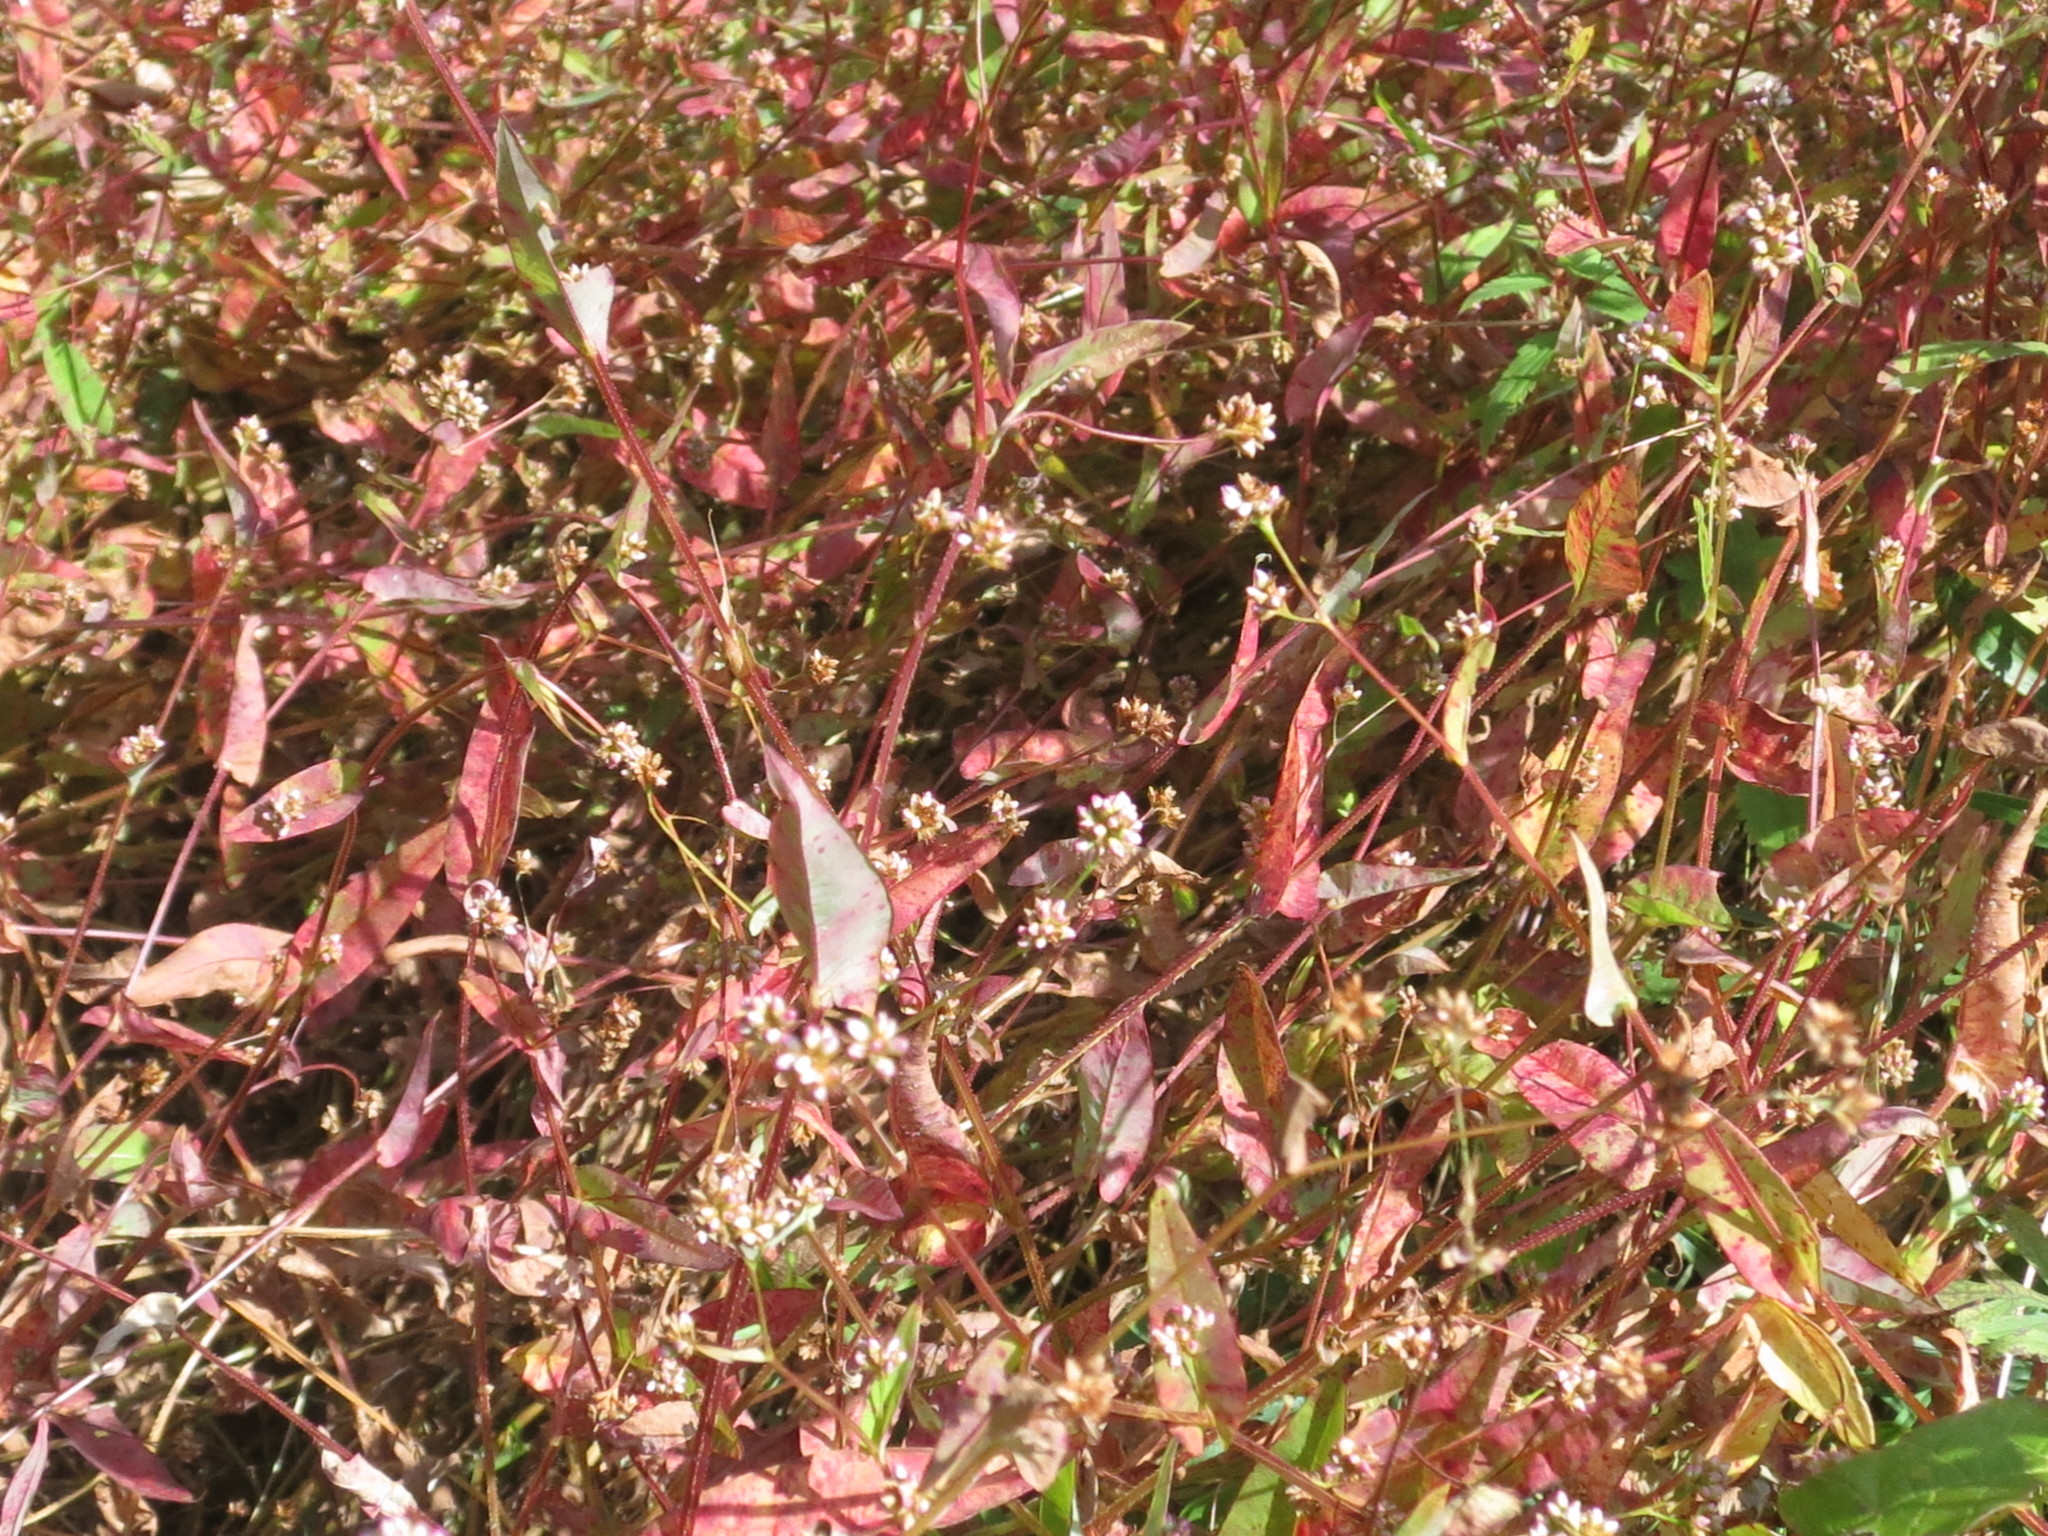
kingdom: Plantae
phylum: Tracheophyta
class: Magnoliopsida
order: Caryophyllales
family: Polygonaceae
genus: Persicaria
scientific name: Persicaria sagittata
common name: American tearthumb
